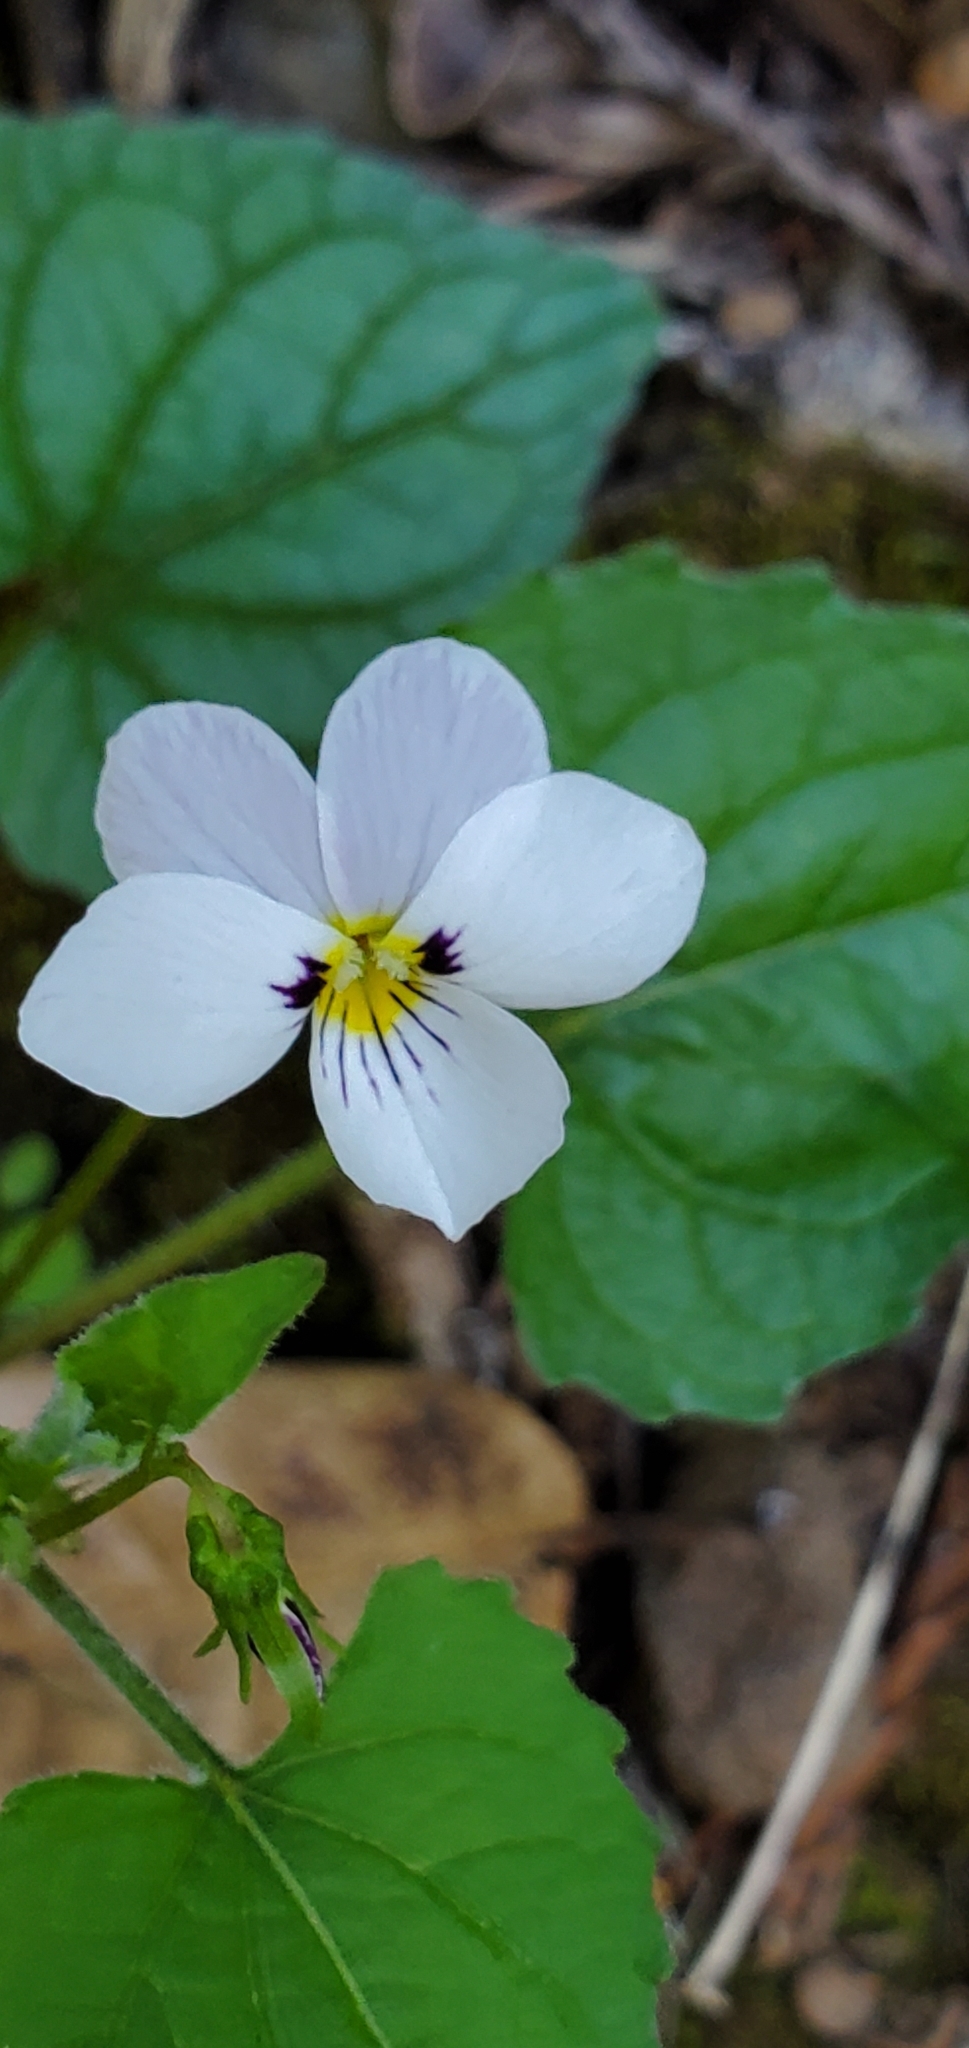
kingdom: Plantae
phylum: Tracheophyta
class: Magnoliopsida
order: Malpighiales
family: Violaceae
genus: Viola
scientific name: Viola ocellata
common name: Western heart's ease
